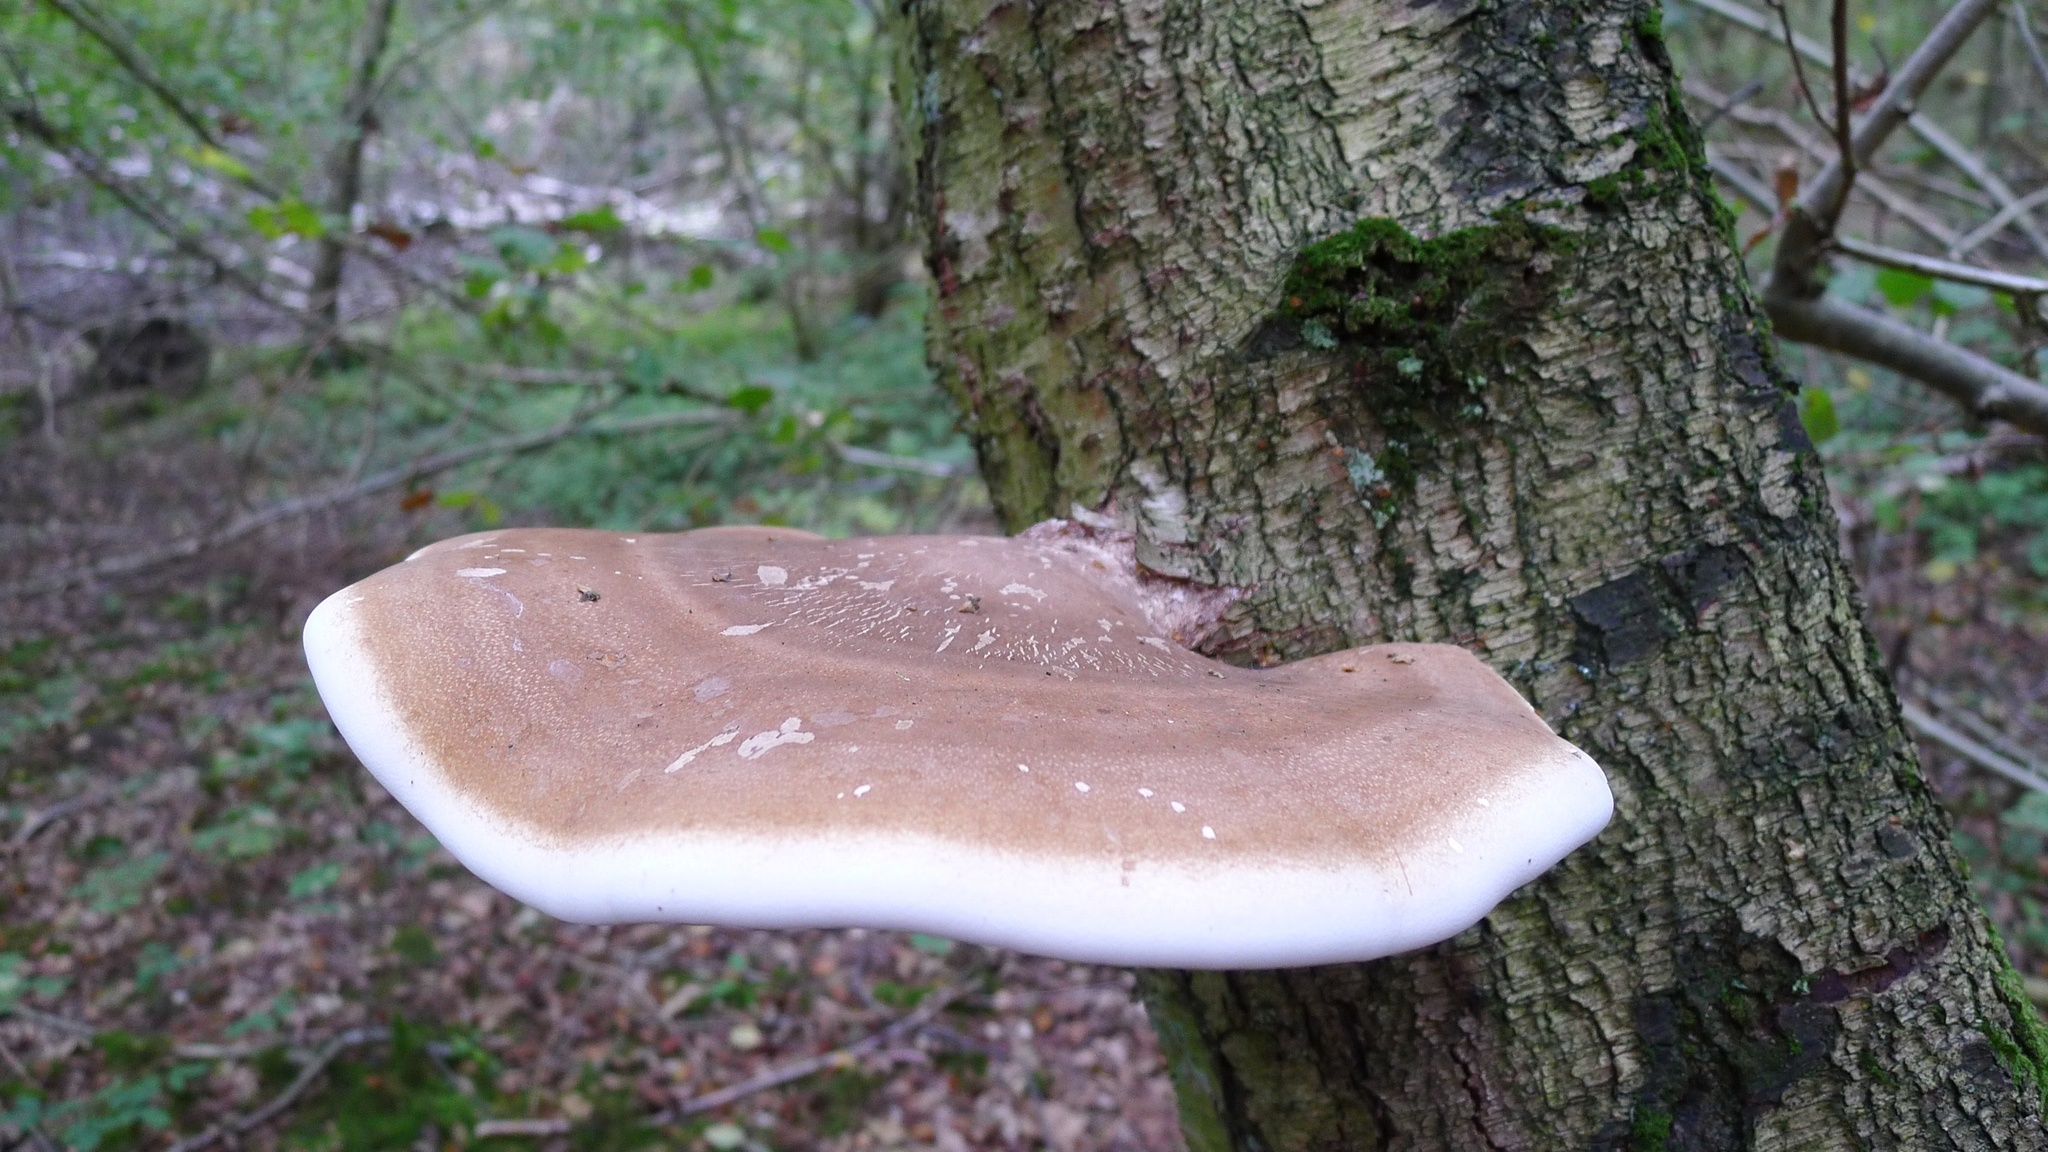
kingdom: Fungi
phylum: Basidiomycota
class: Agaricomycetes
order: Polyporales
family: Fomitopsidaceae
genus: Fomitopsis
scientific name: Fomitopsis betulina
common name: Birch polypore
